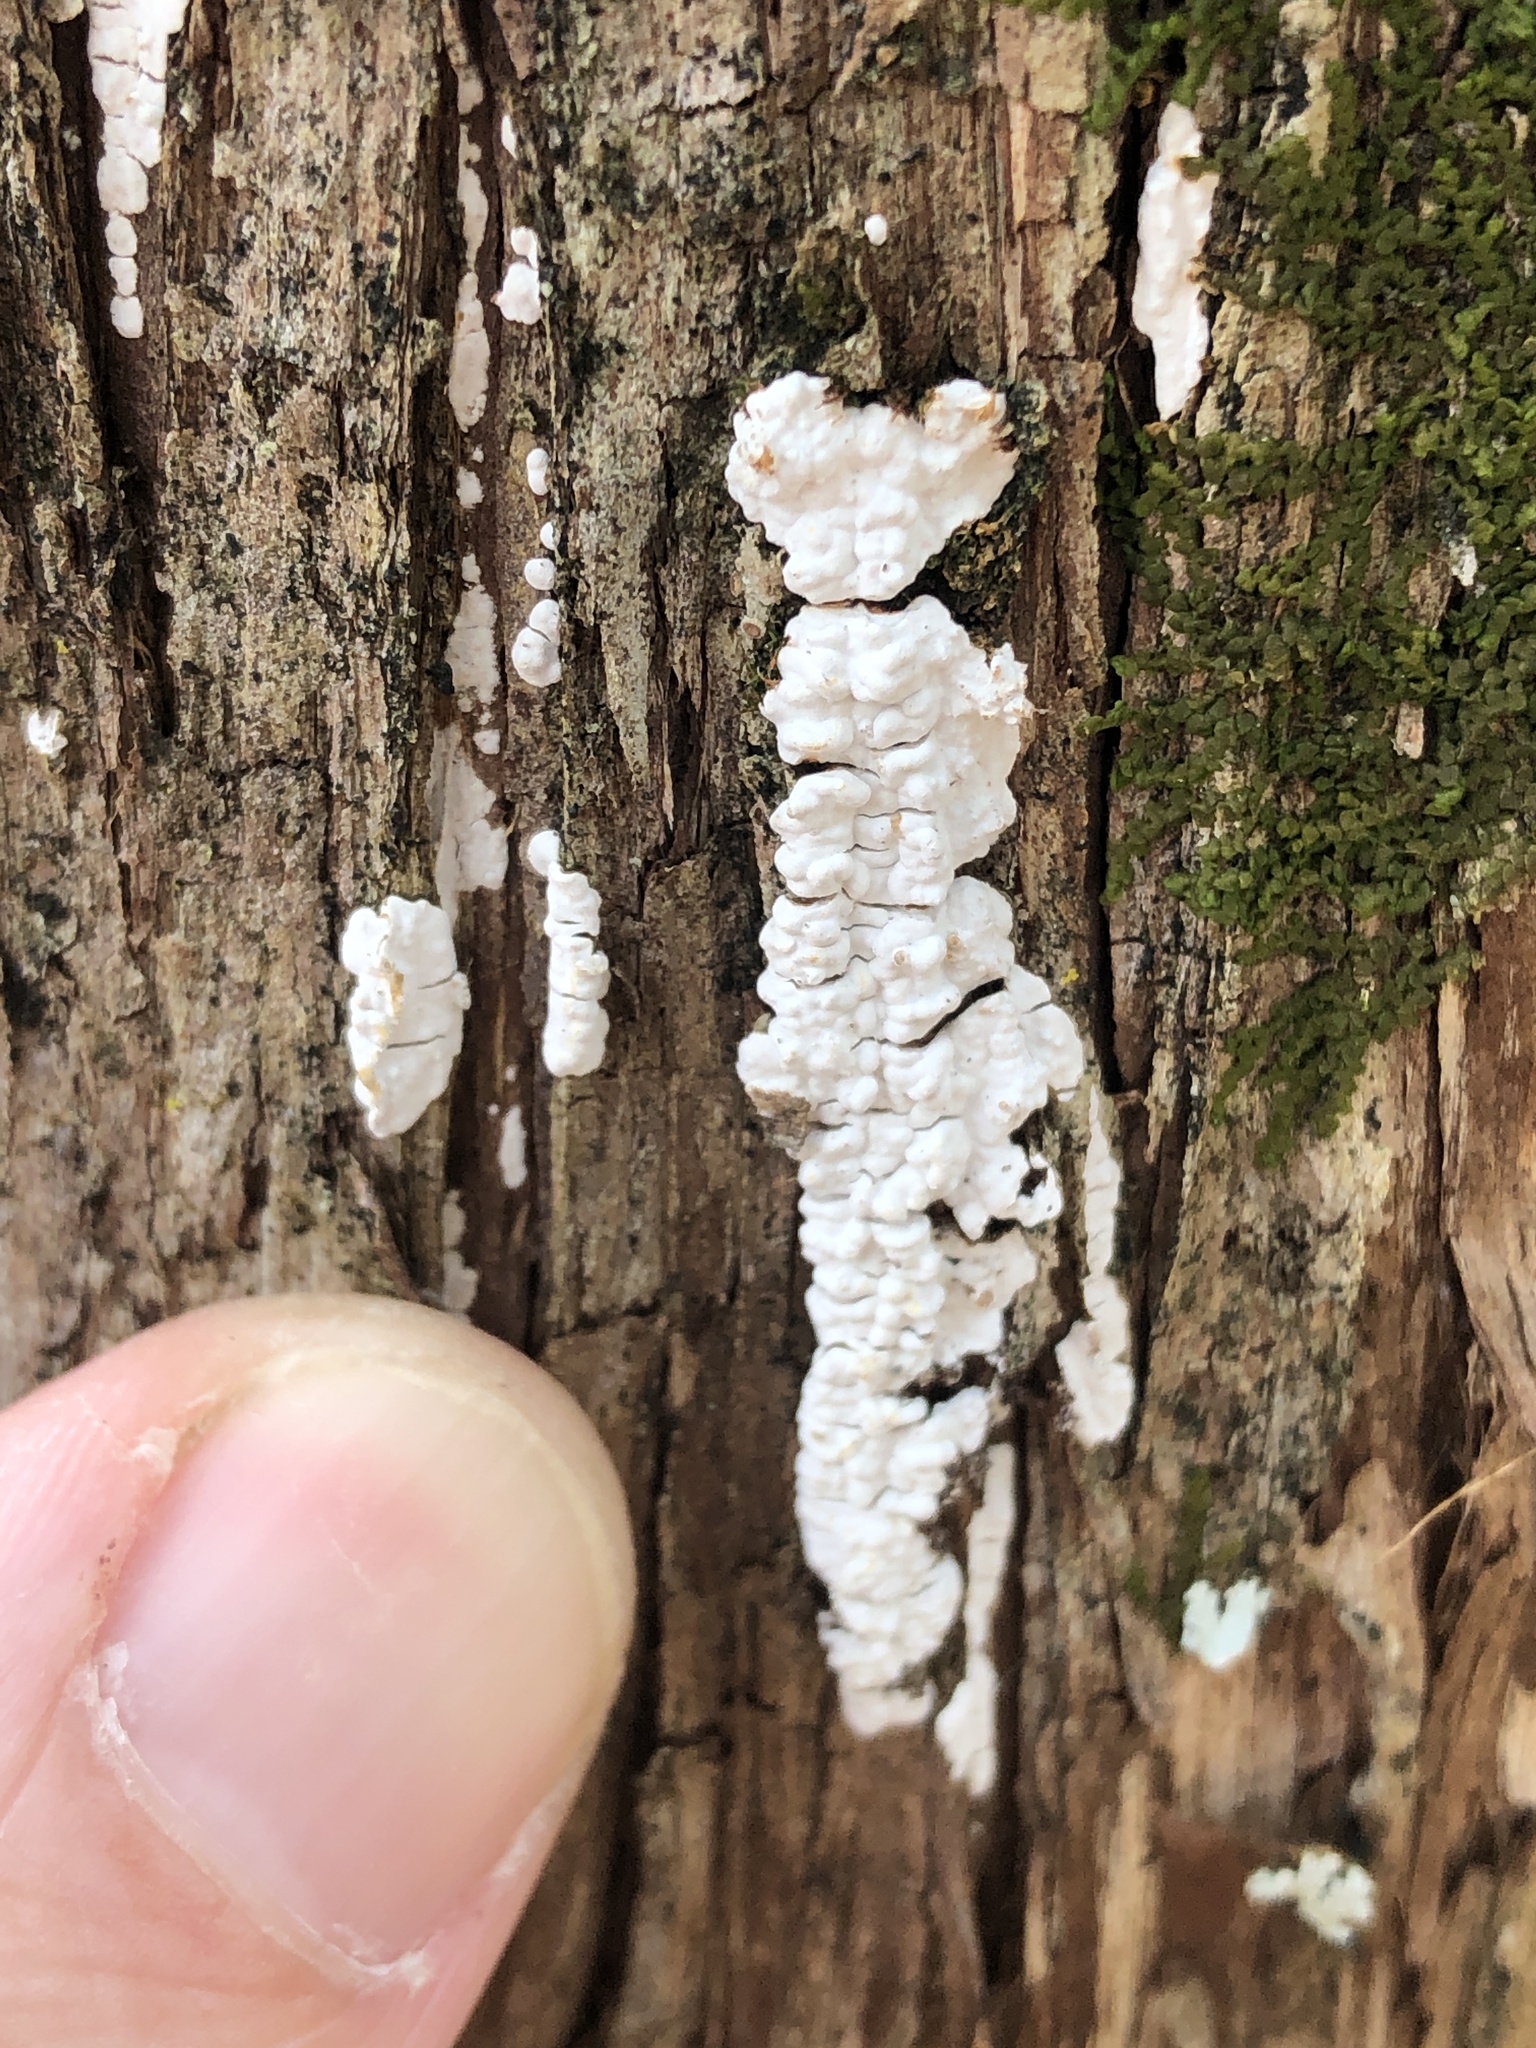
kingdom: Fungi
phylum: Basidiomycota
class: Agaricomycetes
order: Agaricales
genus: Dendrothele
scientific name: Dendrothele nivosa
